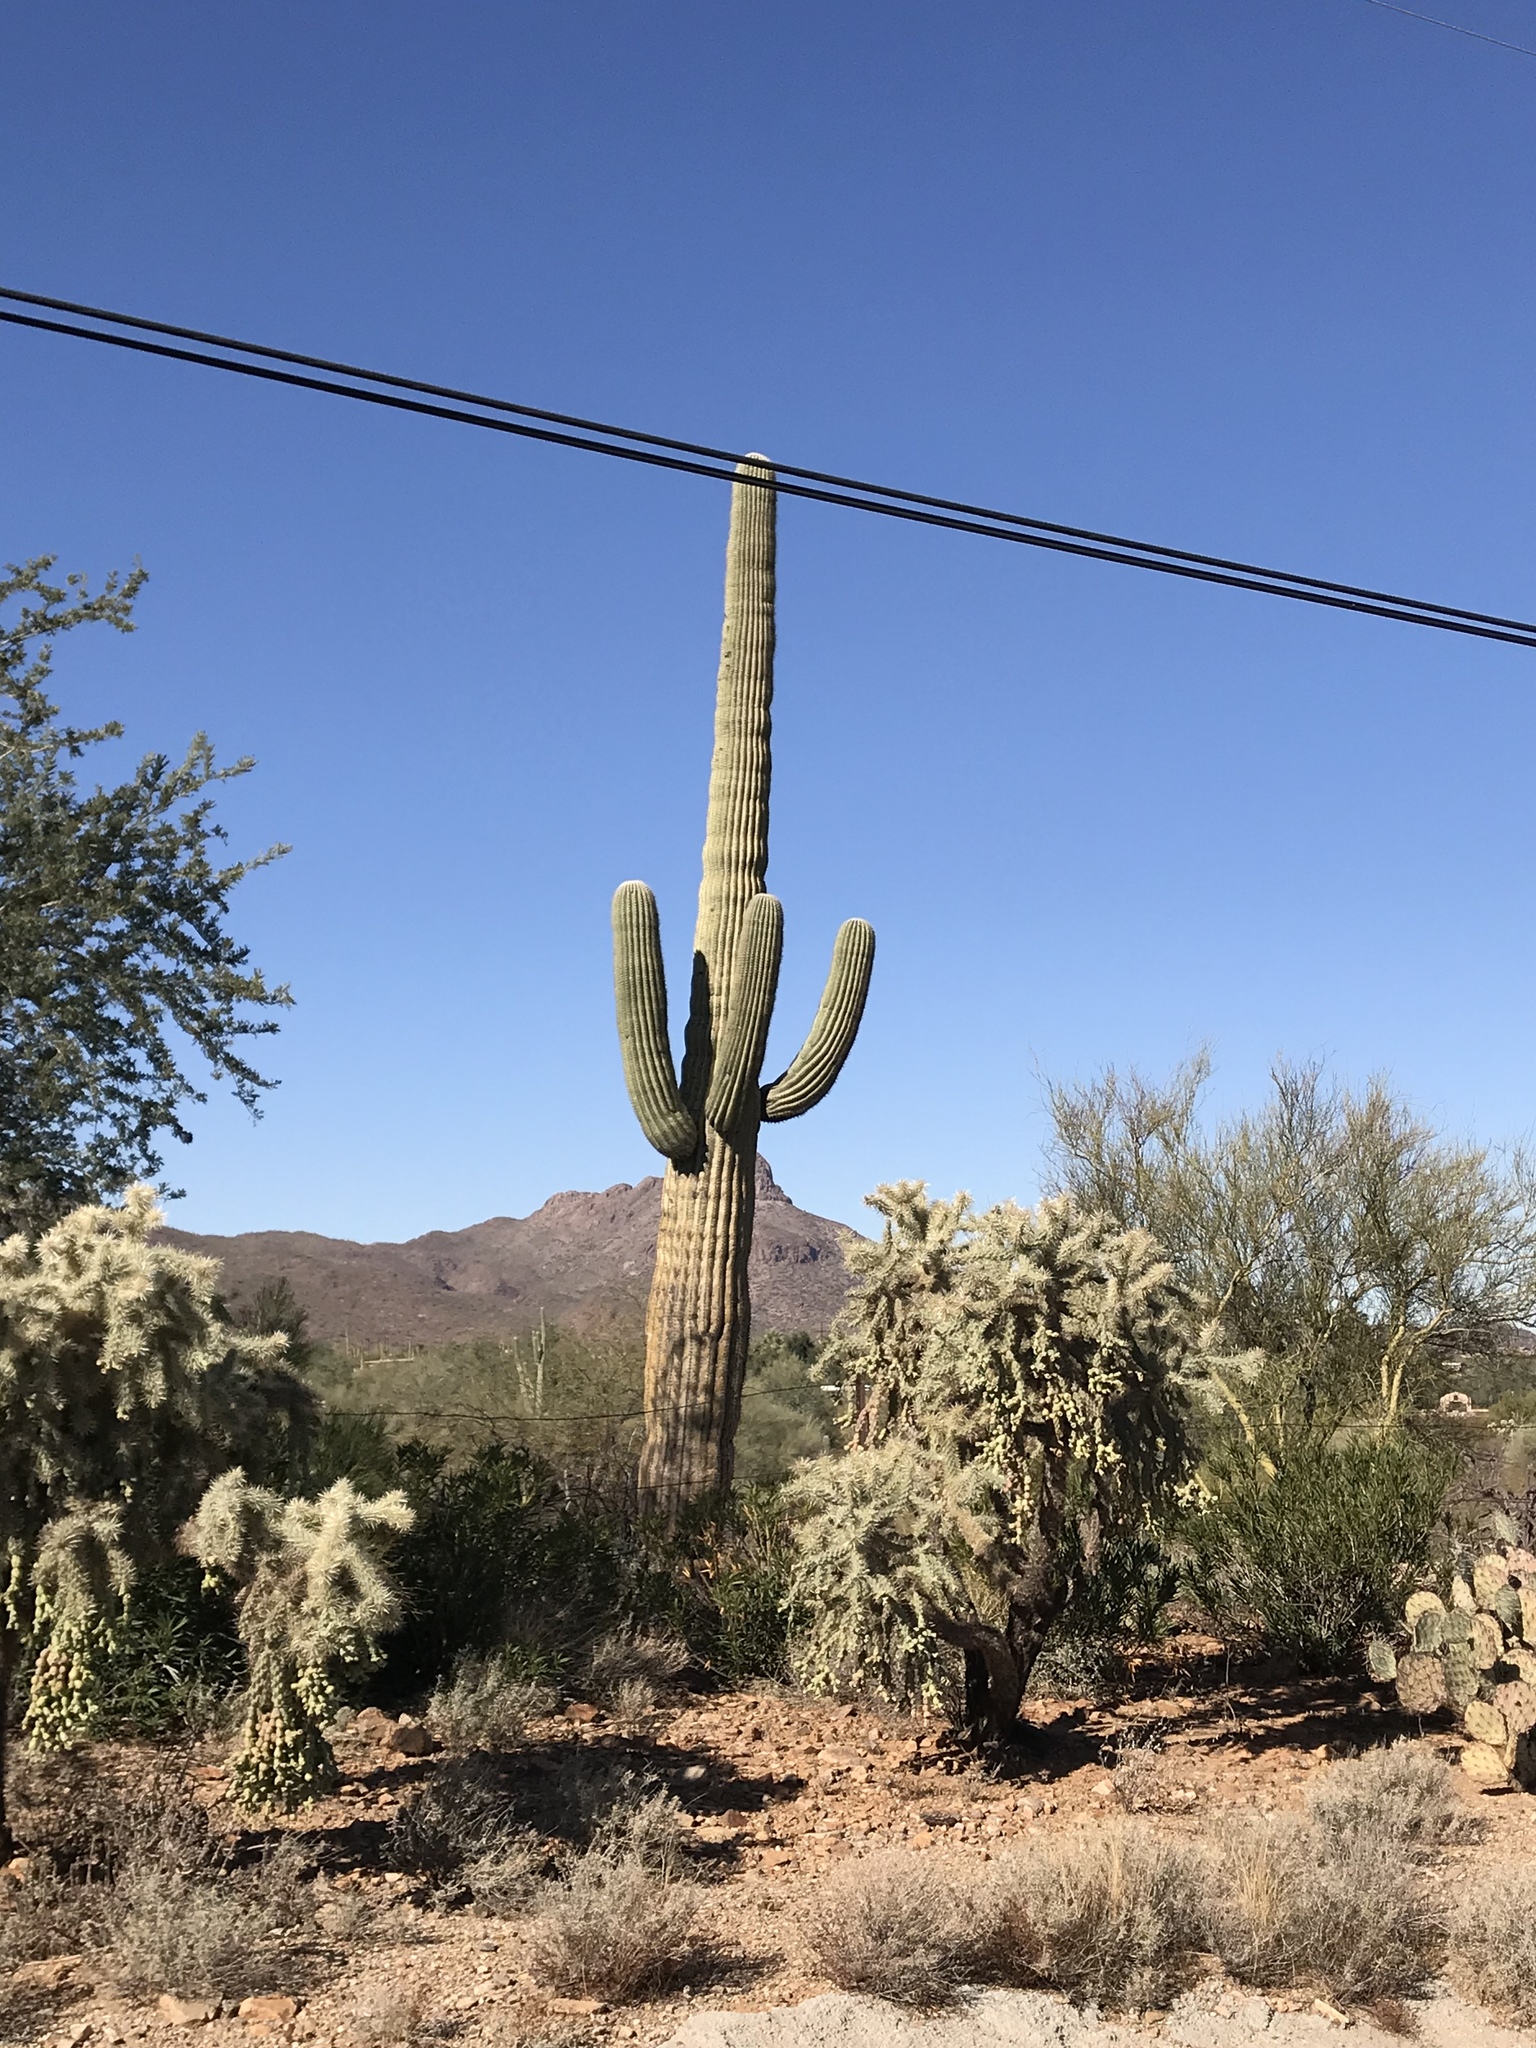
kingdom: Plantae
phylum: Tracheophyta
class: Magnoliopsida
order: Caryophyllales
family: Cactaceae
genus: Carnegiea
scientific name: Carnegiea gigantea
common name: Saguaro
